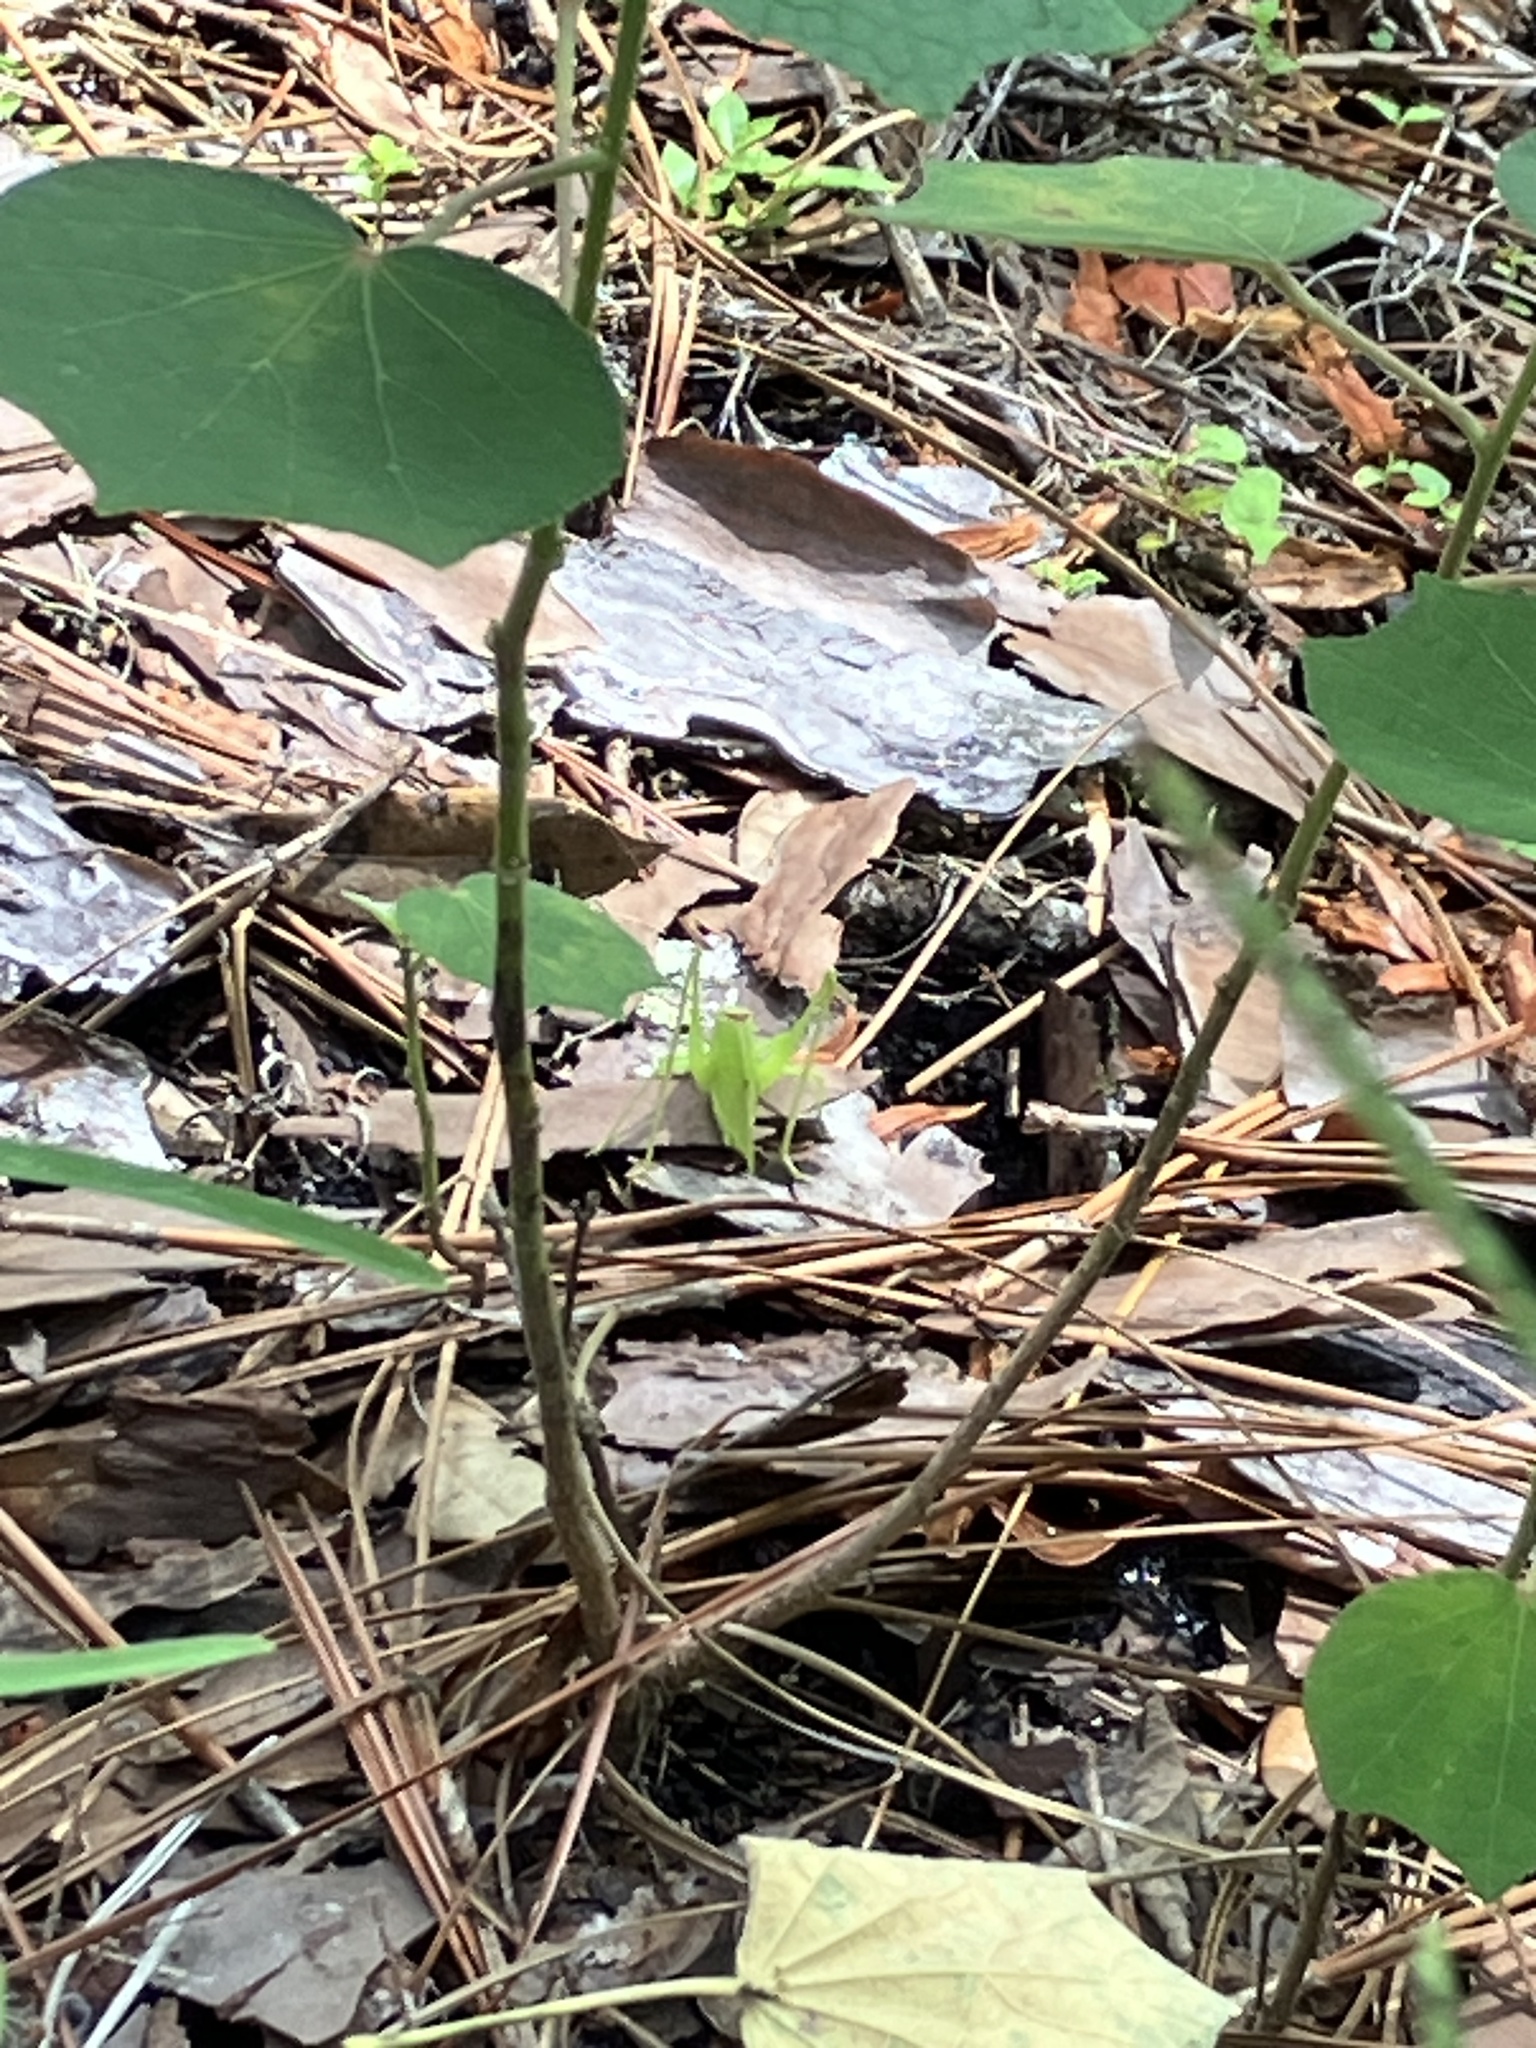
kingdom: Animalia
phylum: Arthropoda
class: Insecta
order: Orthoptera
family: Tettigoniidae
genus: Amblycorypha
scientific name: Amblycorypha
